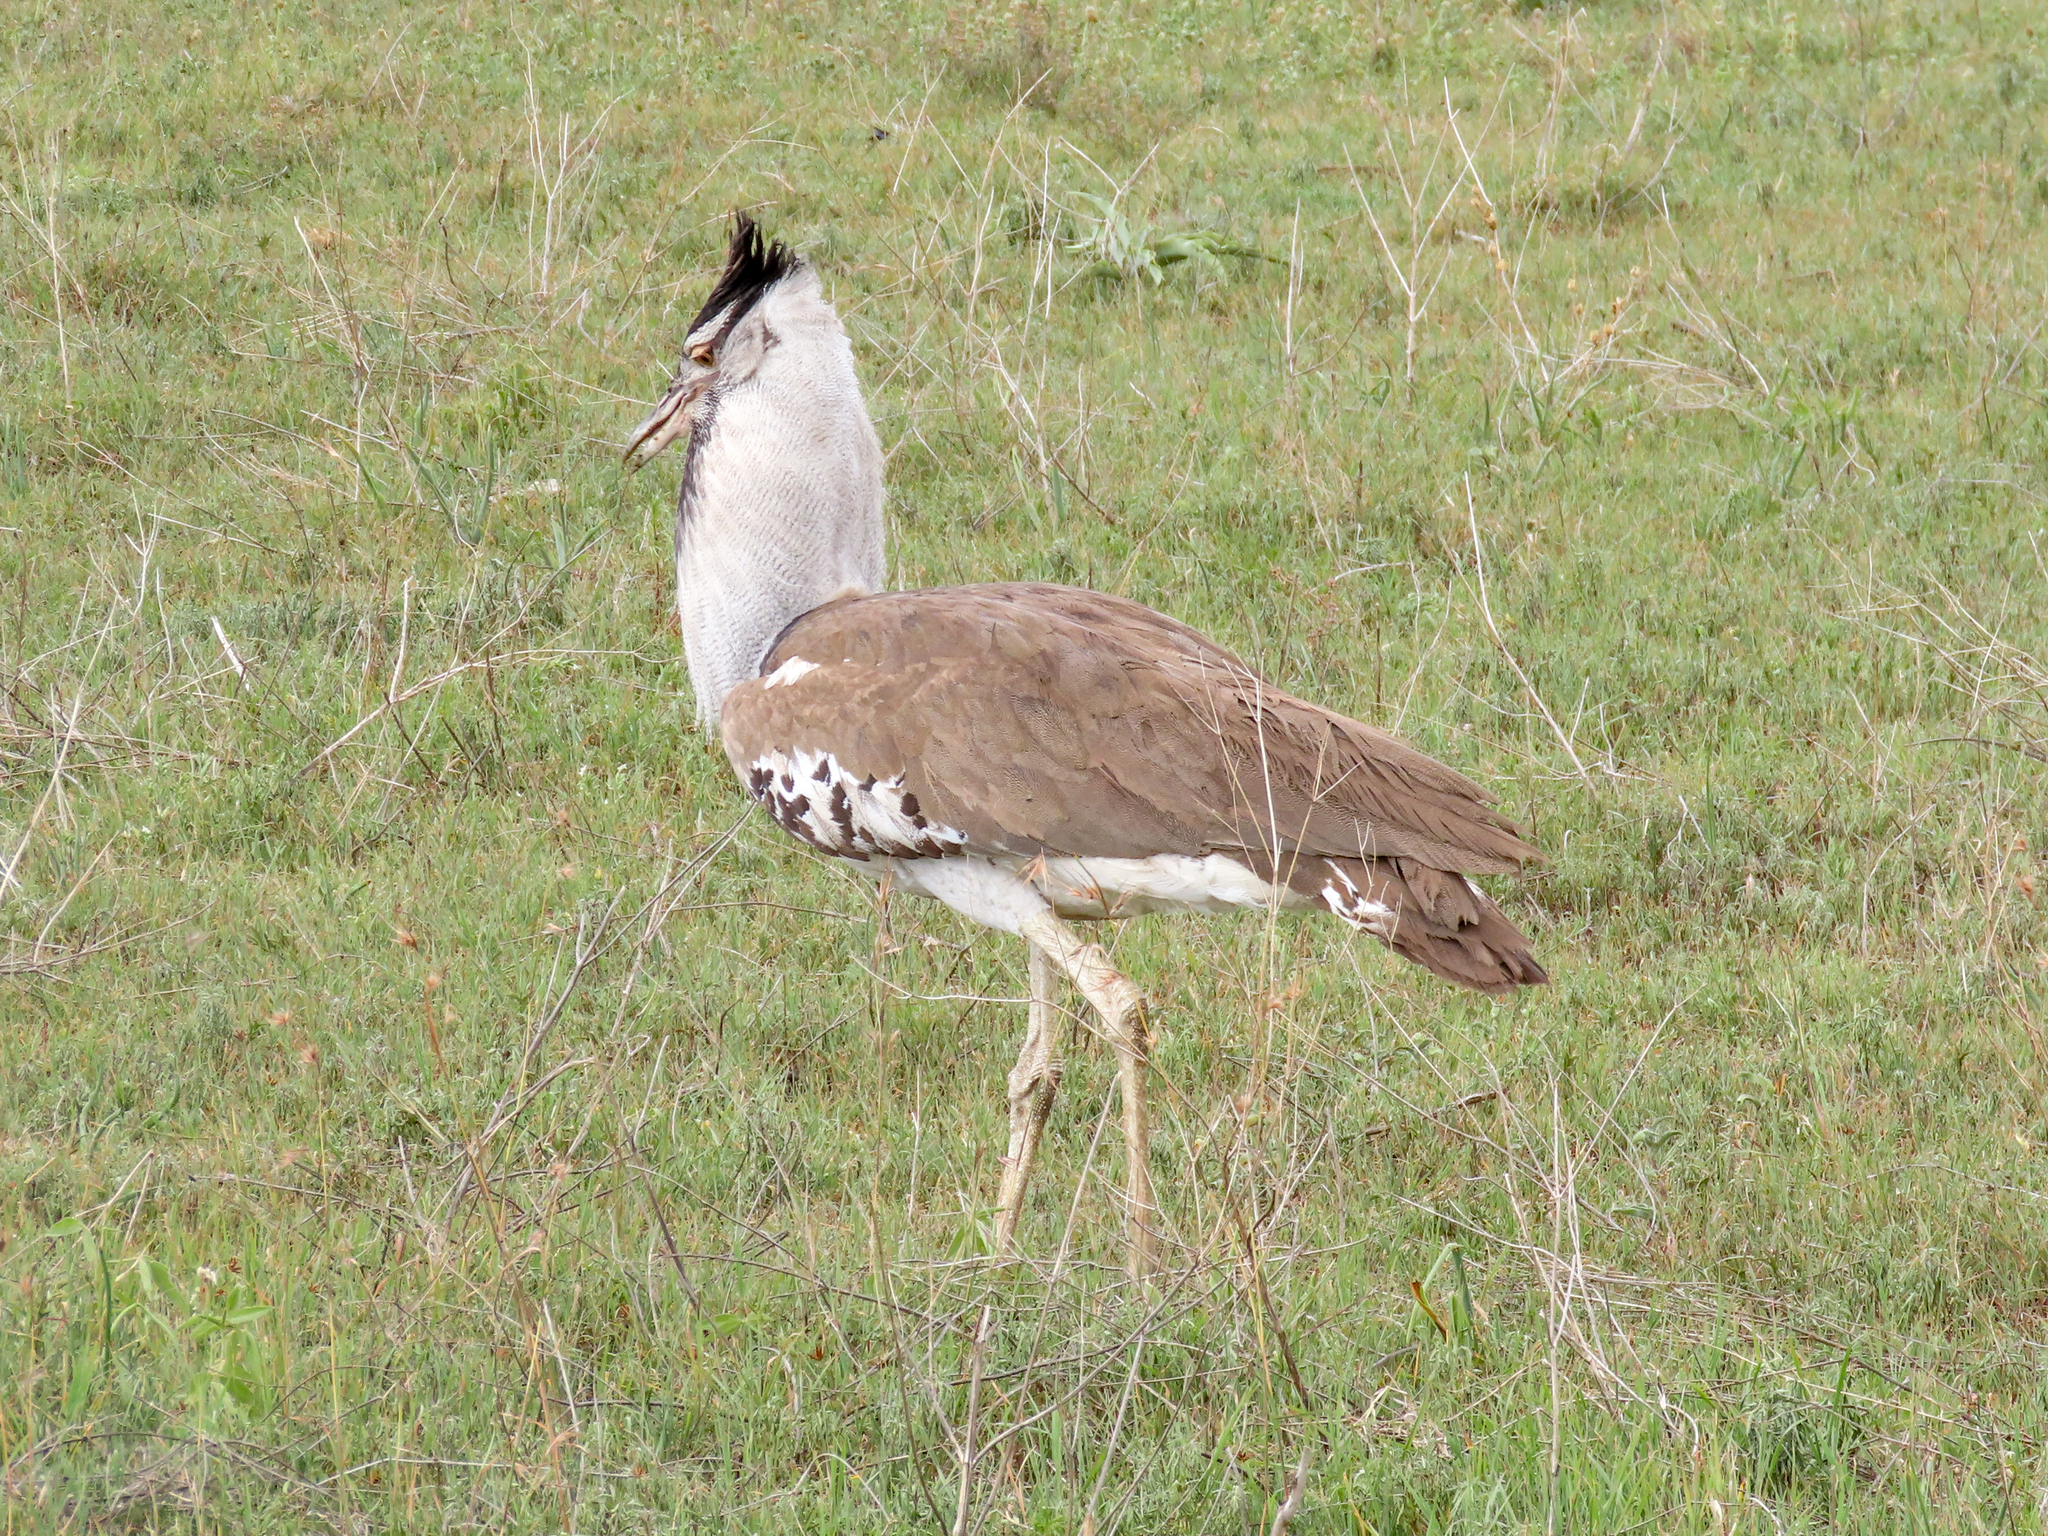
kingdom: Animalia
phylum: Chordata
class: Aves
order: Otidiformes
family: Otididae
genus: Ardeotis
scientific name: Ardeotis kori
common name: Kori bustard
